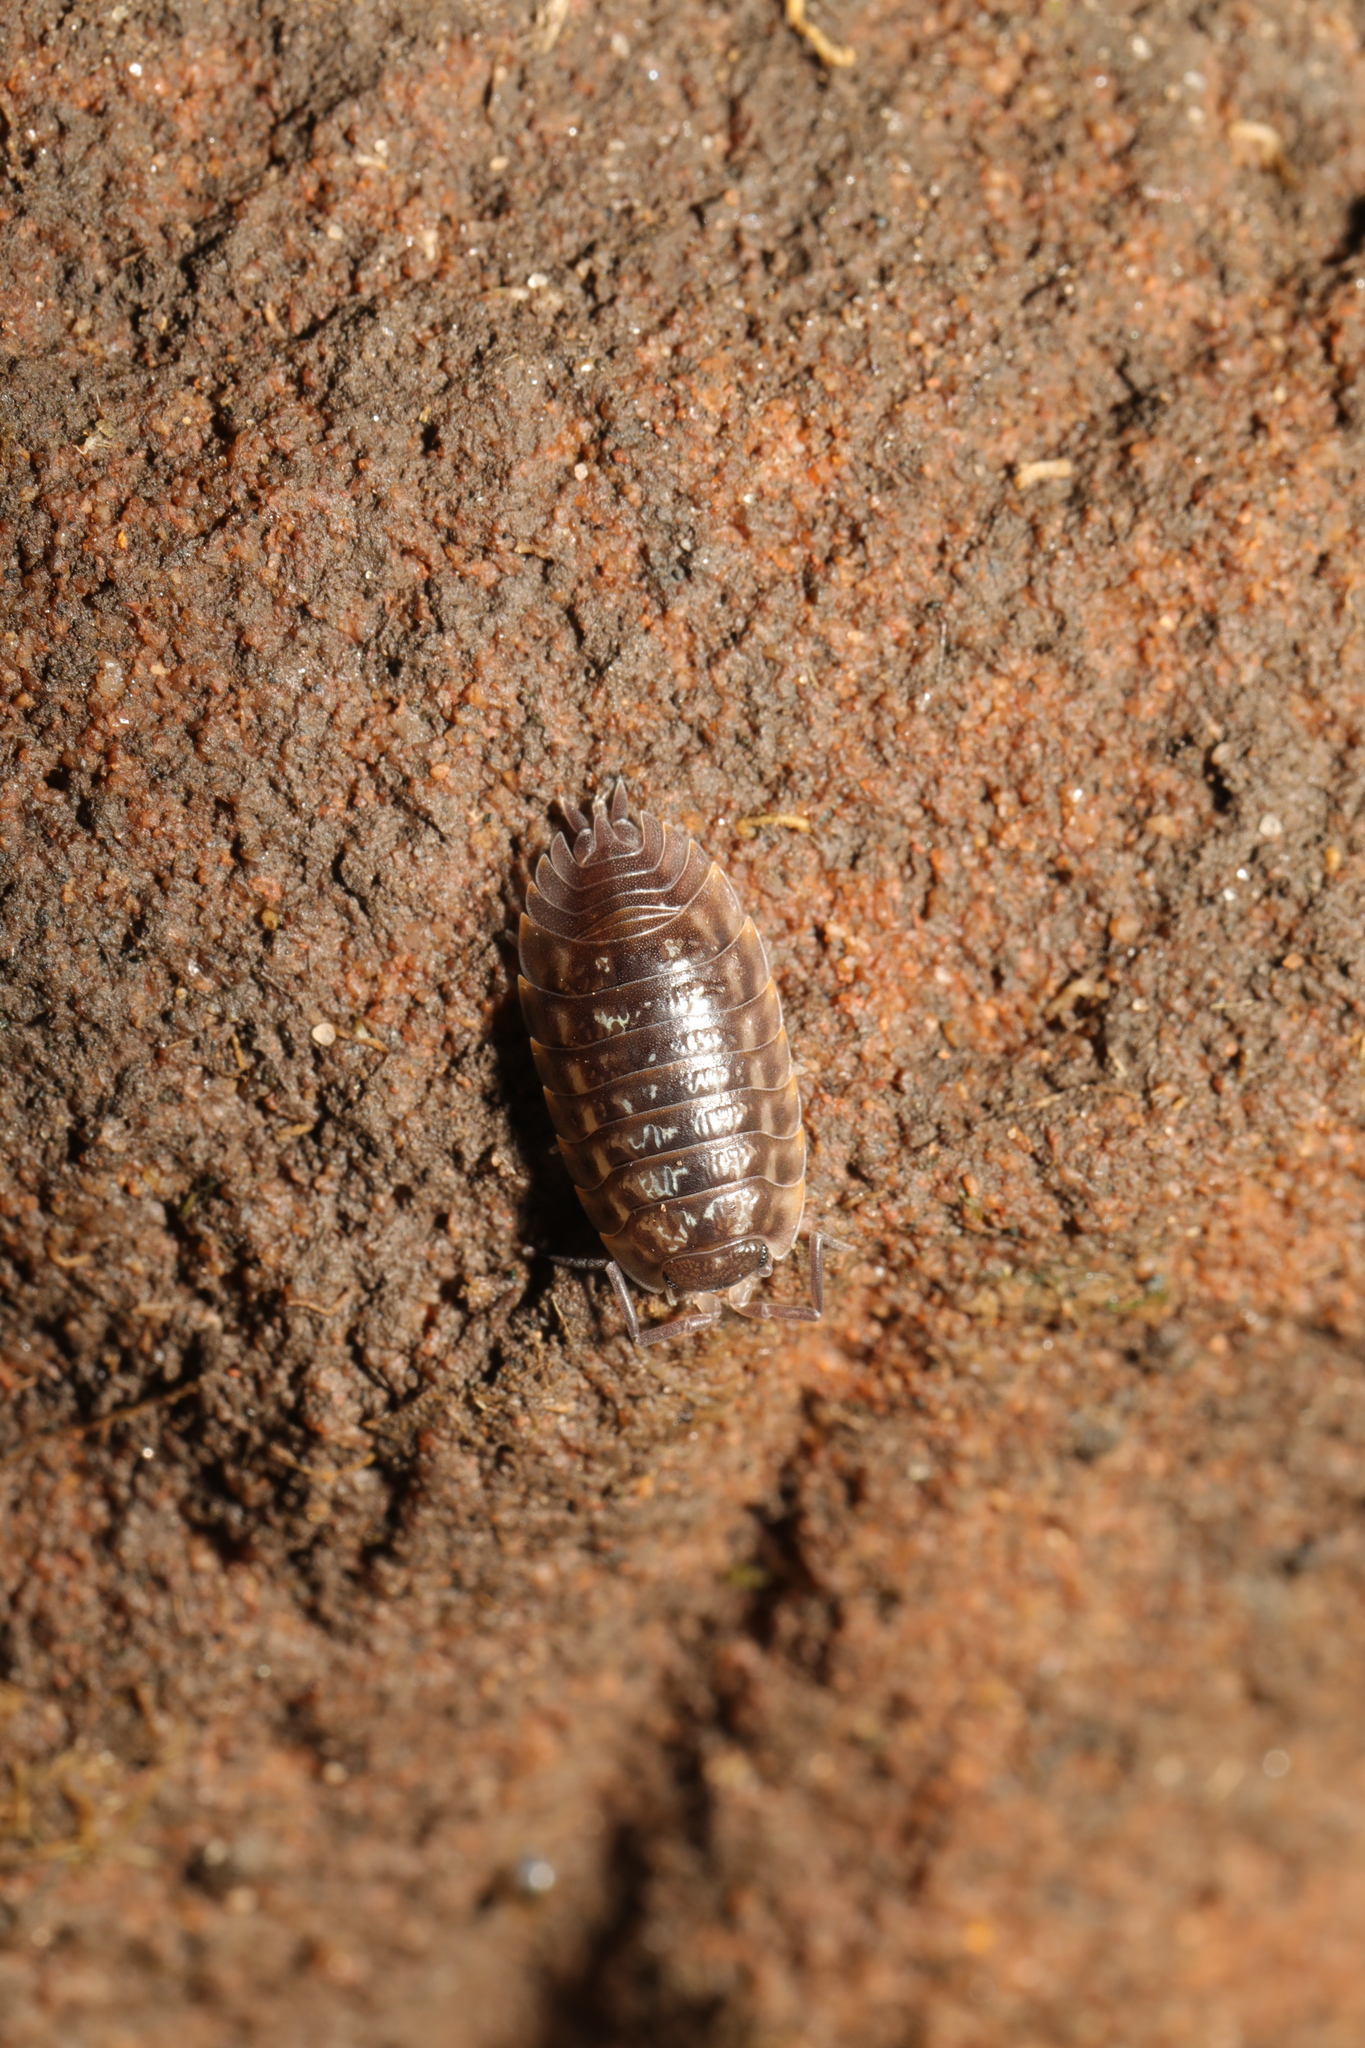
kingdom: Animalia
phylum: Arthropoda
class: Malacostraca
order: Isopoda
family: Oniscidae
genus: Oniscus
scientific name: Oniscus asellus
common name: Common shiny woodlouse
